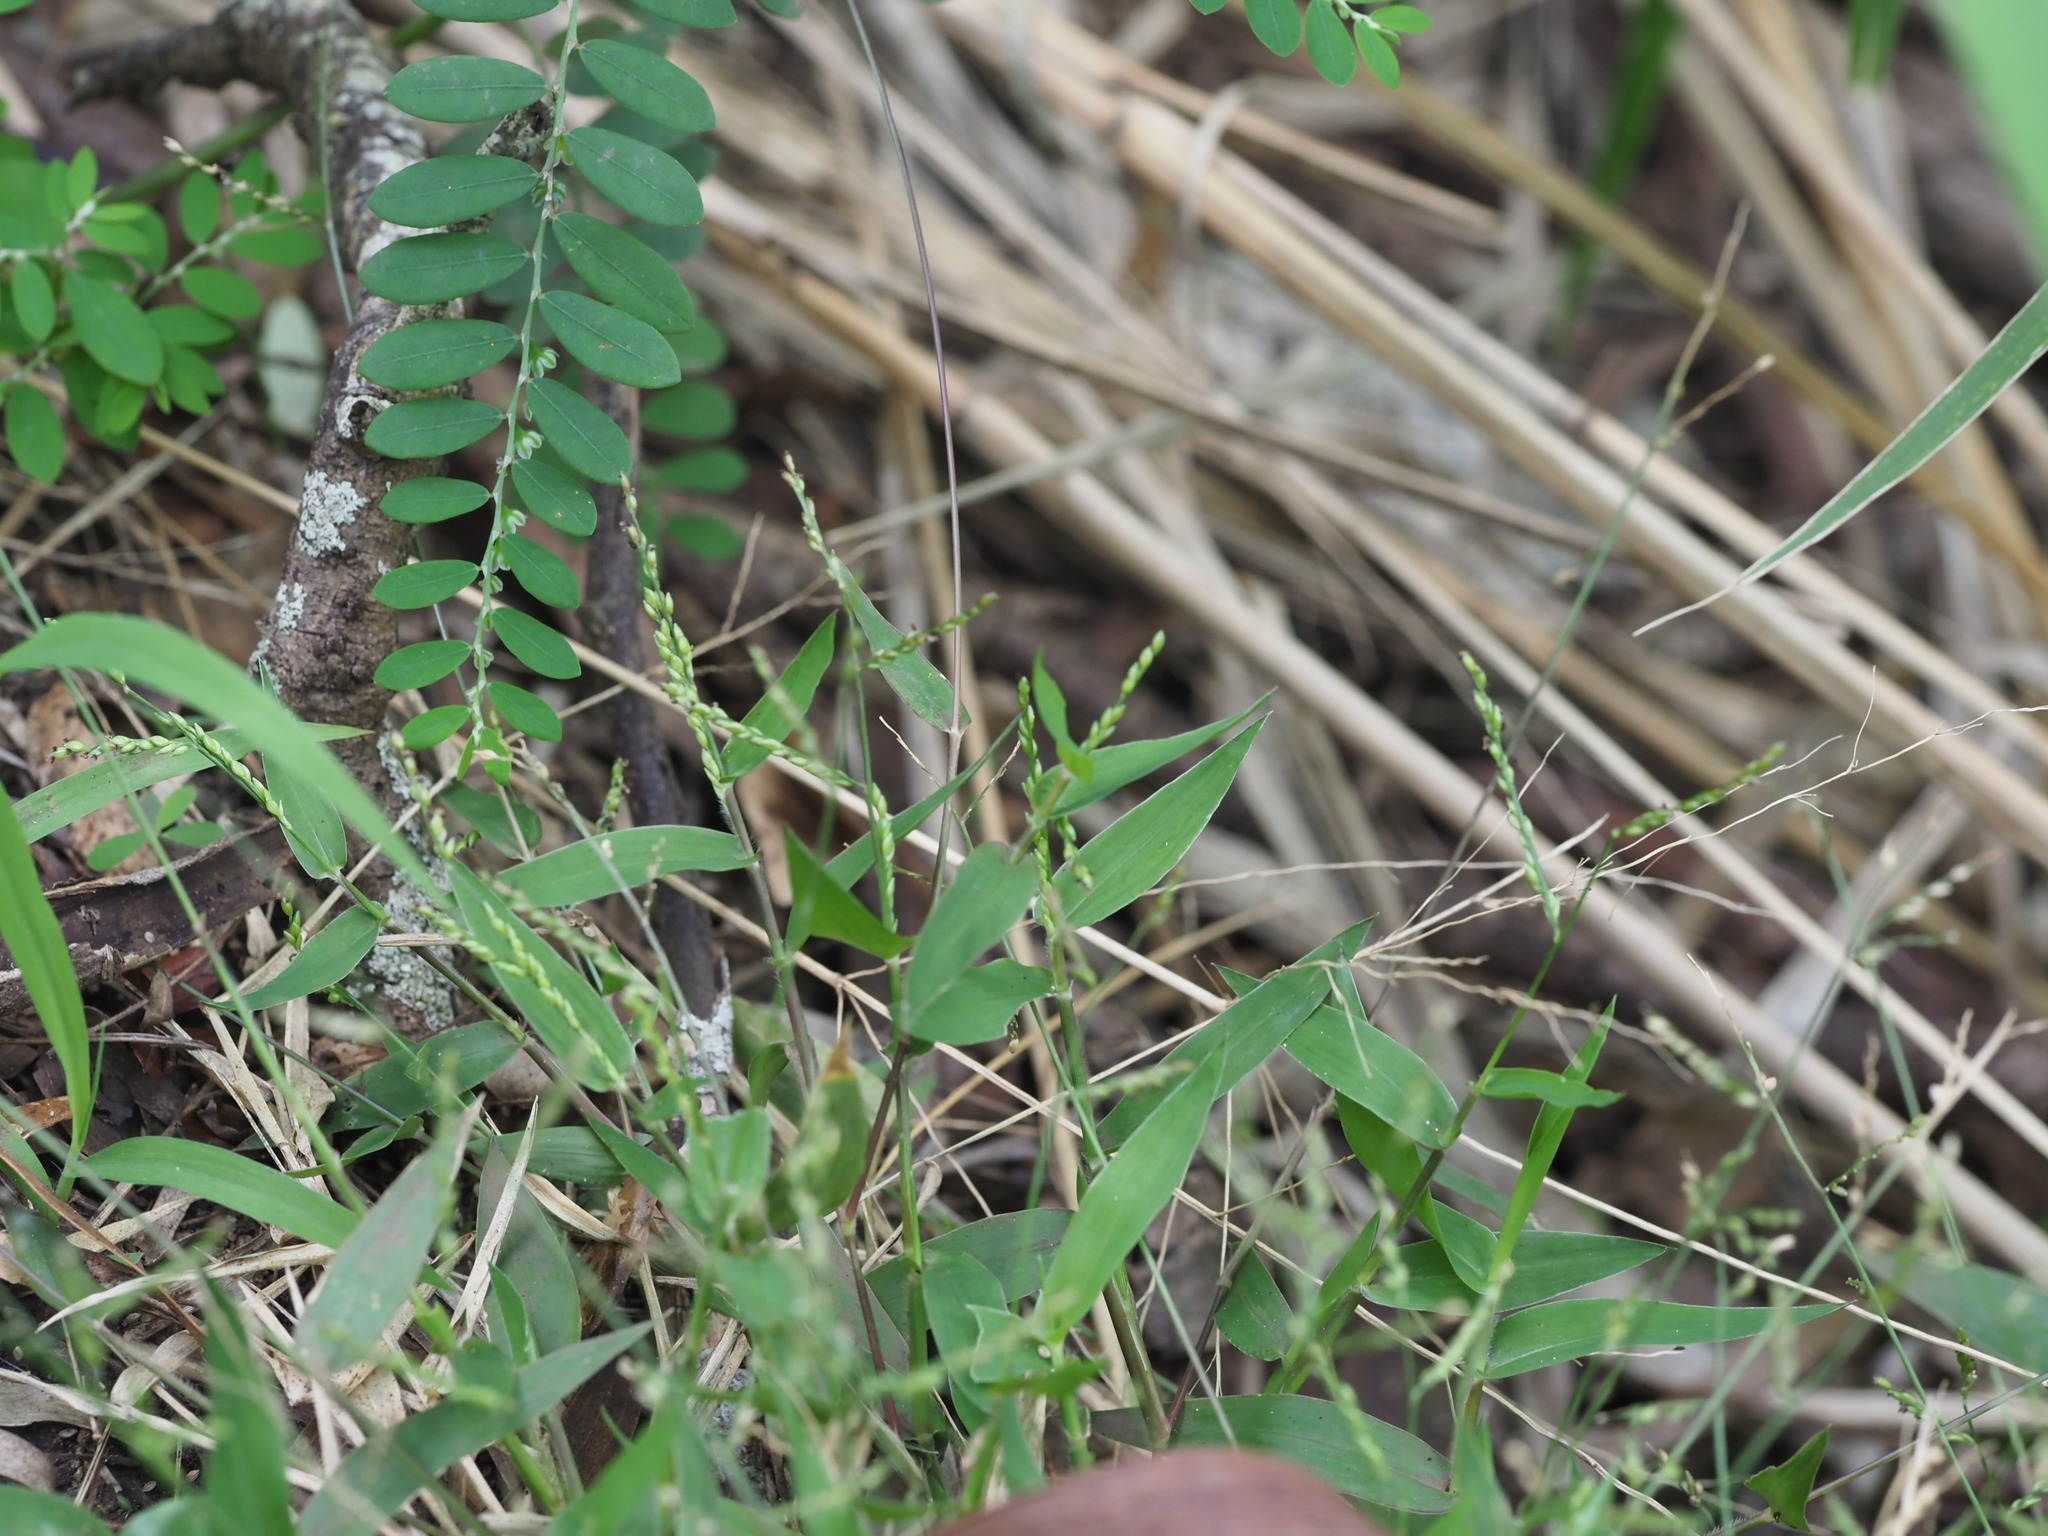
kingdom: Plantae
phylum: Tracheophyta
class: Liliopsida
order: Poales
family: Poaceae
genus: Urochloa
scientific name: Urochloa reptans
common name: Sprawling signalgrass
